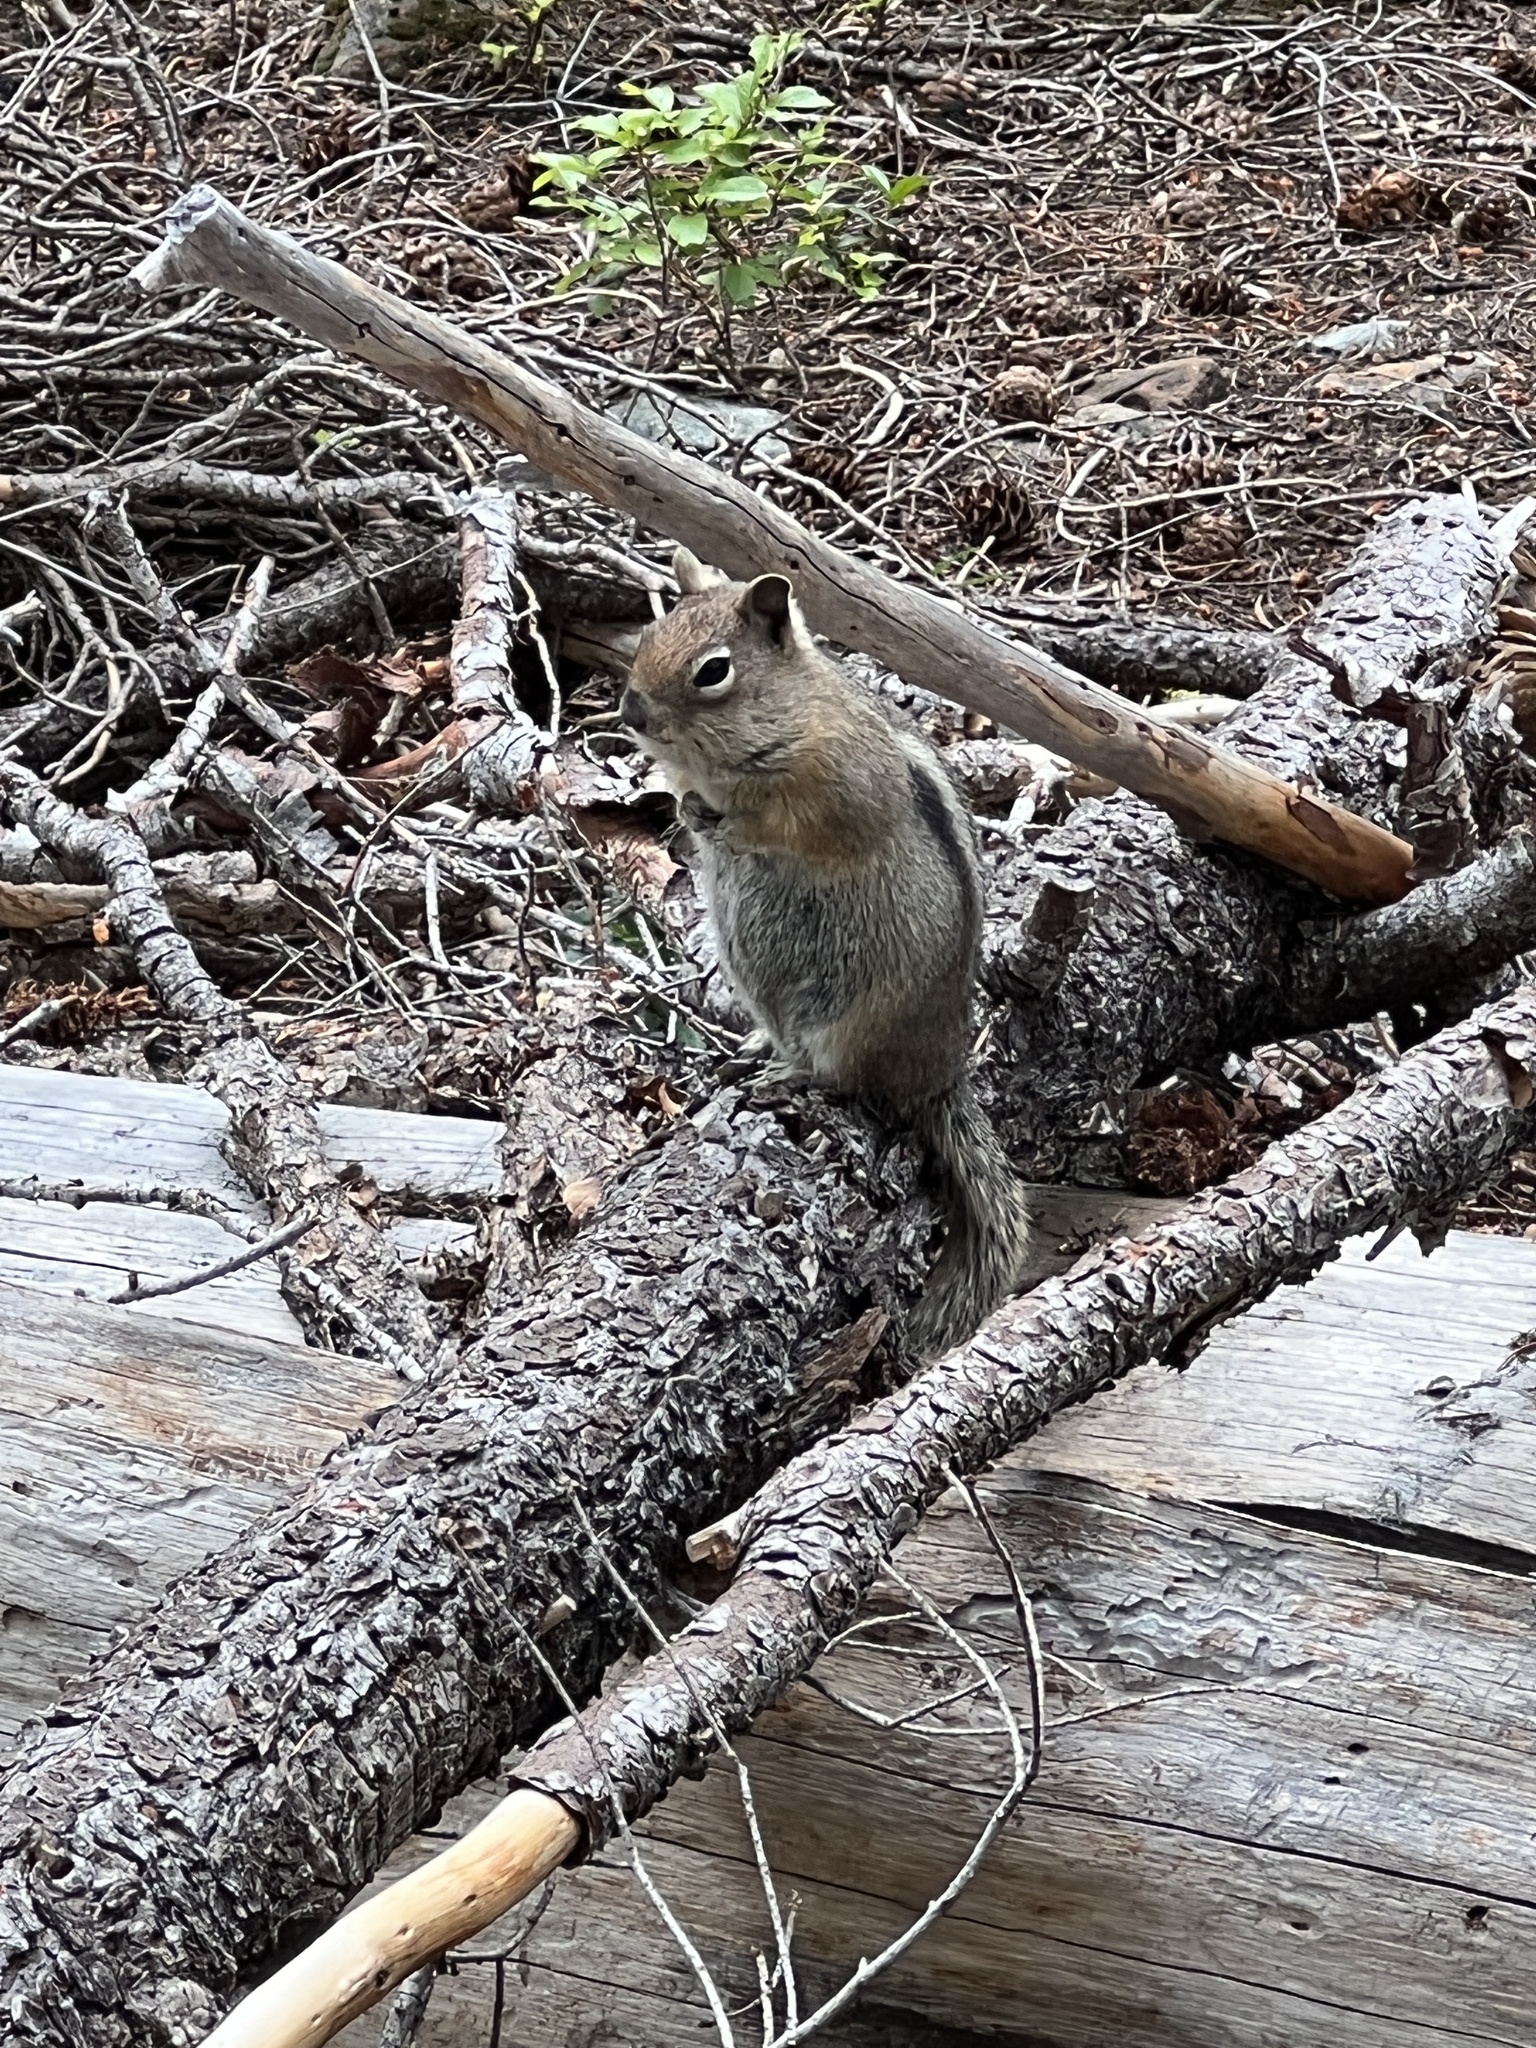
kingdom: Animalia
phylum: Chordata
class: Mammalia
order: Rodentia
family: Sciuridae
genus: Callospermophilus
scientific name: Callospermophilus saturatus
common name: Cascade golden-mantled ground squirrel
